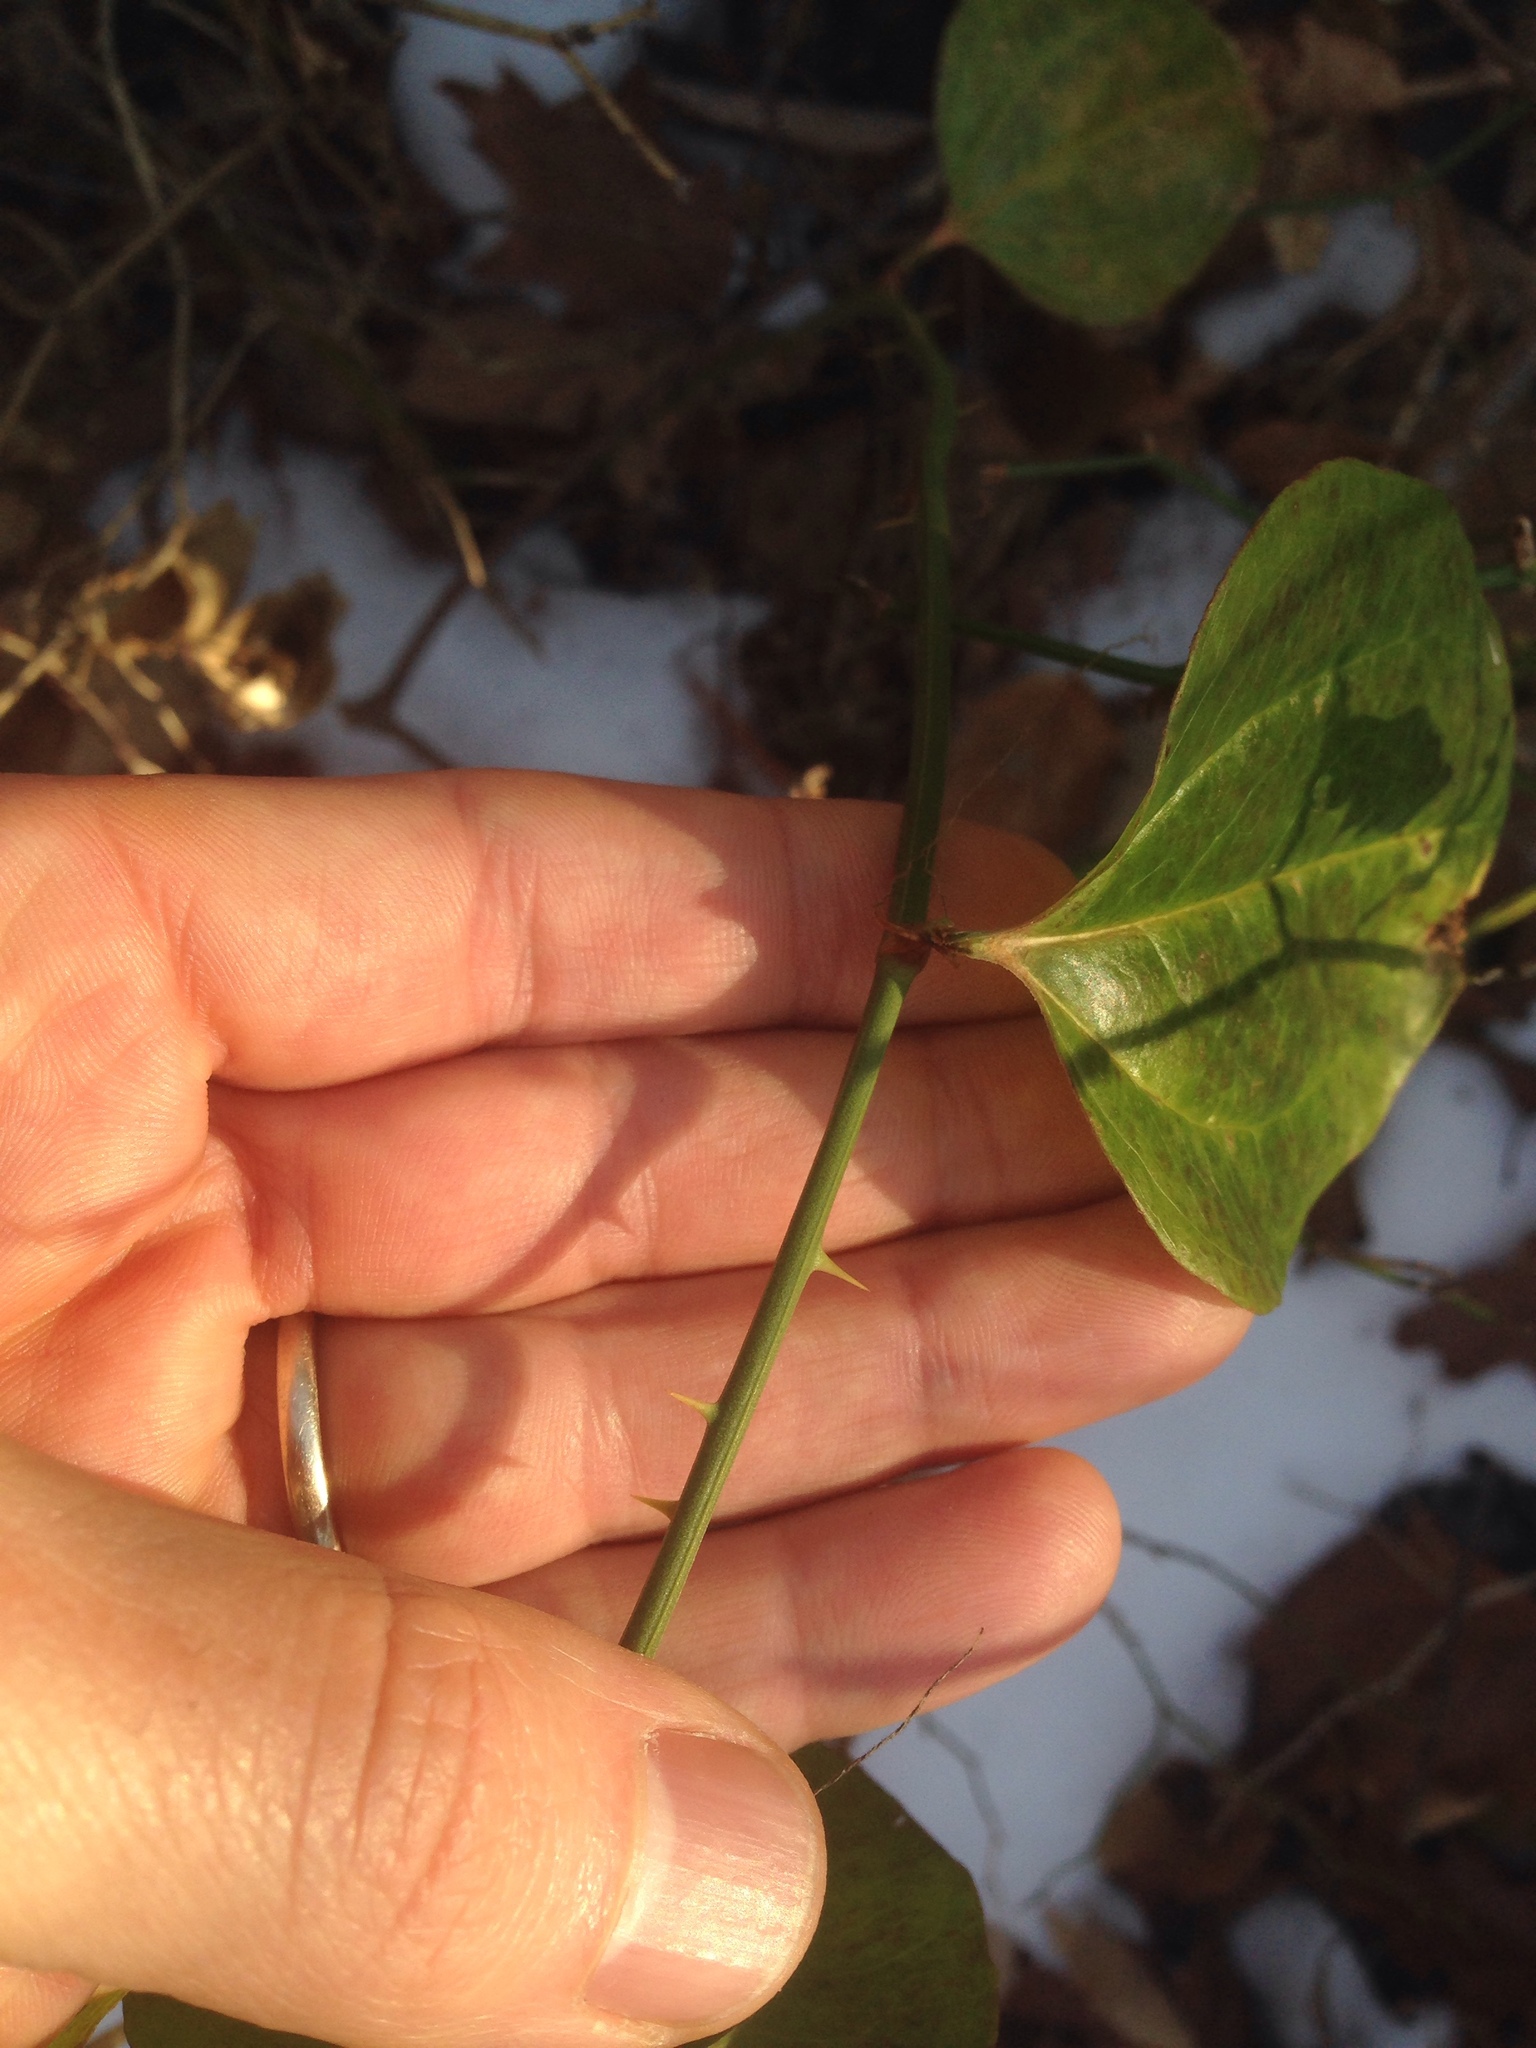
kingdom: Plantae
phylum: Tracheophyta
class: Liliopsida
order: Liliales
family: Smilacaceae
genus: Smilax
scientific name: Smilax rotundifolia
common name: Bullbriar
